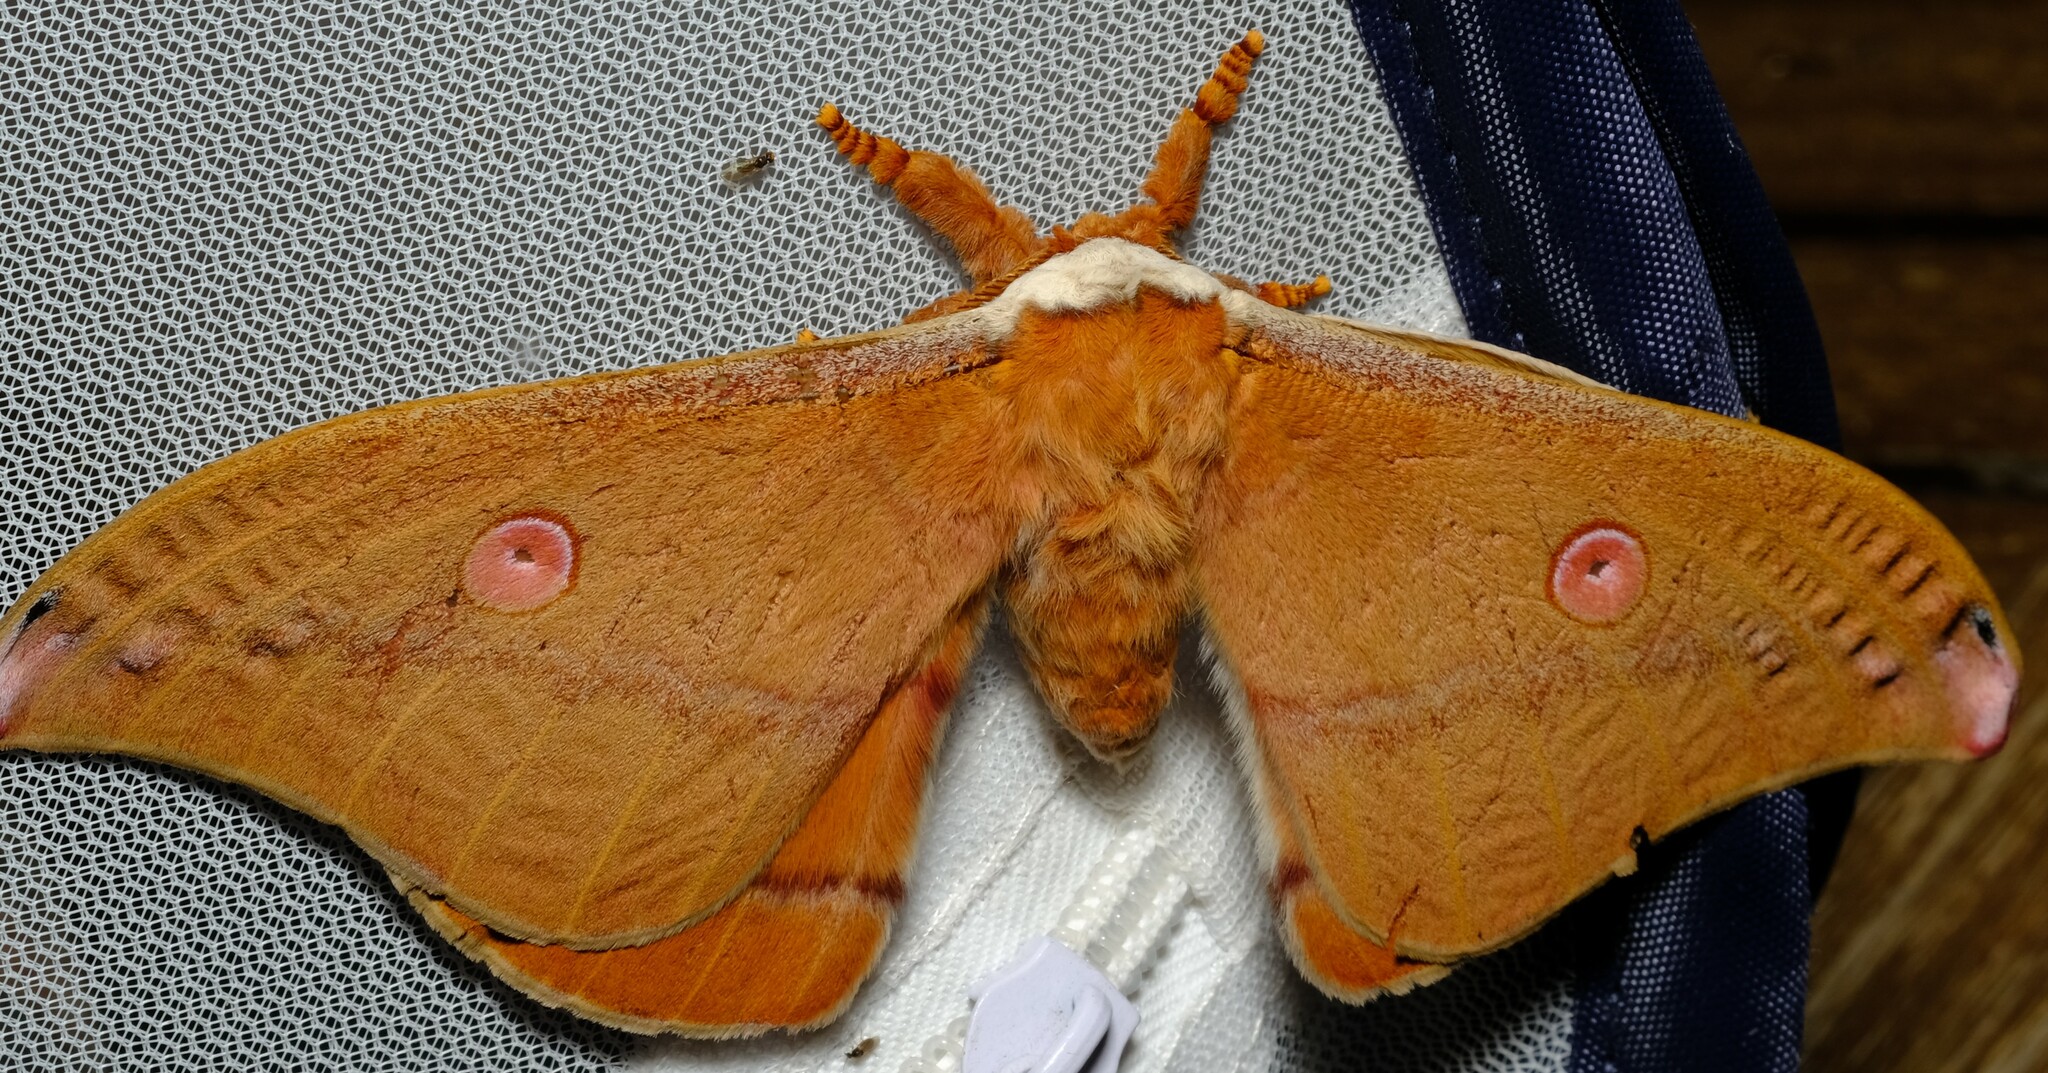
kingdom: Animalia
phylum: Arthropoda
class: Insecta
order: Lepidoptera
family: Saturniidae
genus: Opodiphthera
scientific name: Opodiphthera
